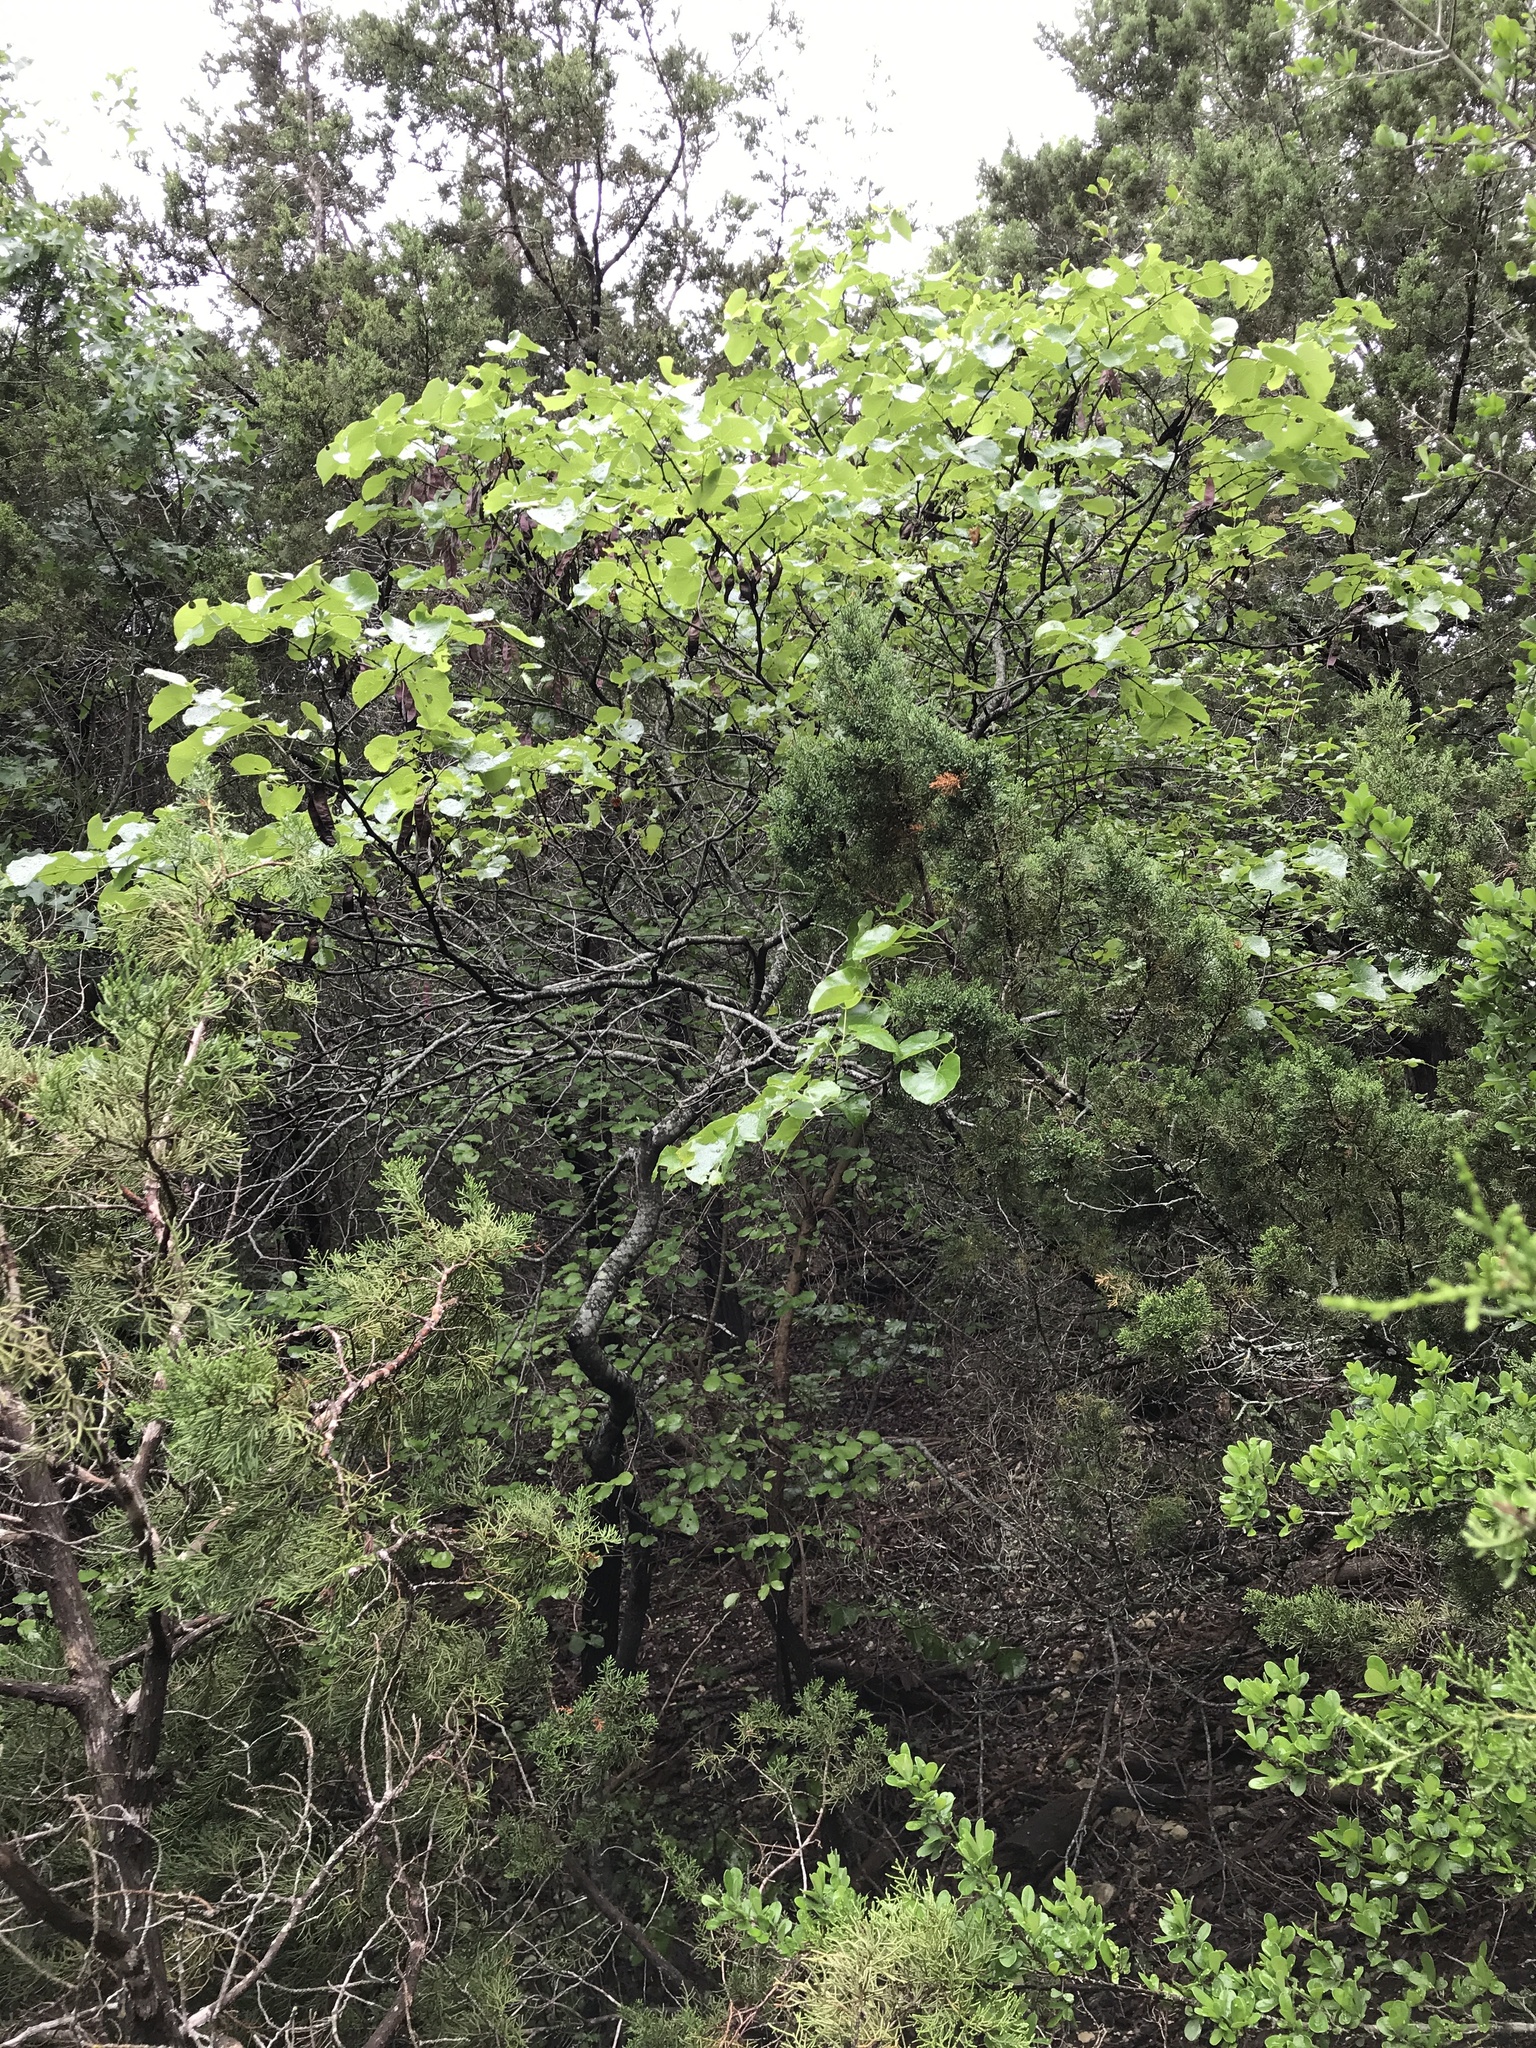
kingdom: Plantae
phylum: Tracheophyta
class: Magnoliopsida
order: Fabales
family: Fabaceae
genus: Cercis
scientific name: Cercis canadensis
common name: Eastern redbud
